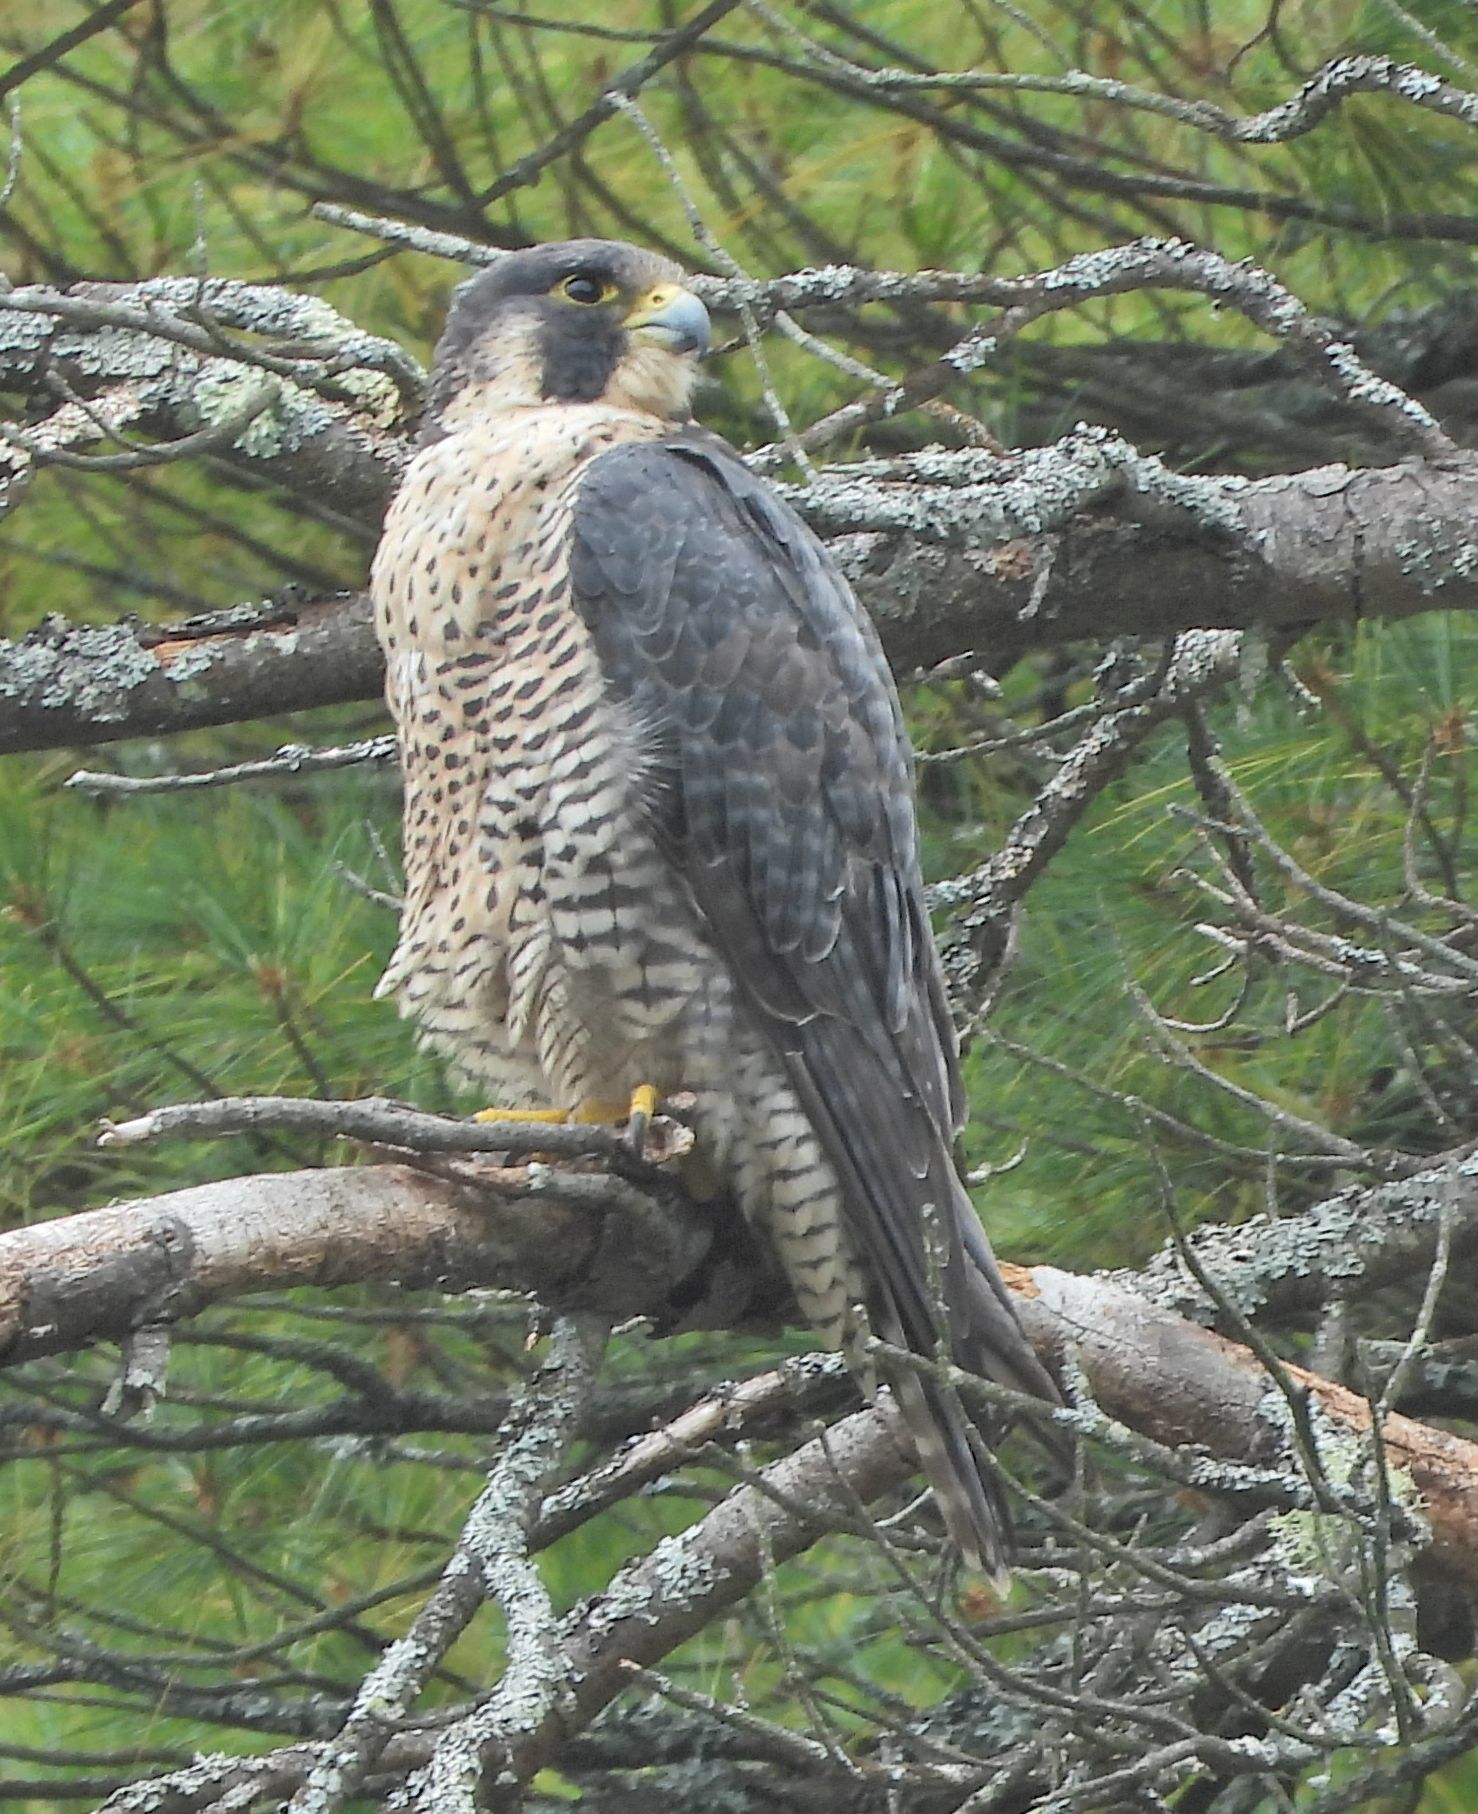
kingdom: Animalia
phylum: Chordata
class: Aves
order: Falconiformes
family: Falconidae
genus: Falco
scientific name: Falco peregrinus
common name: Peregrine falcon
